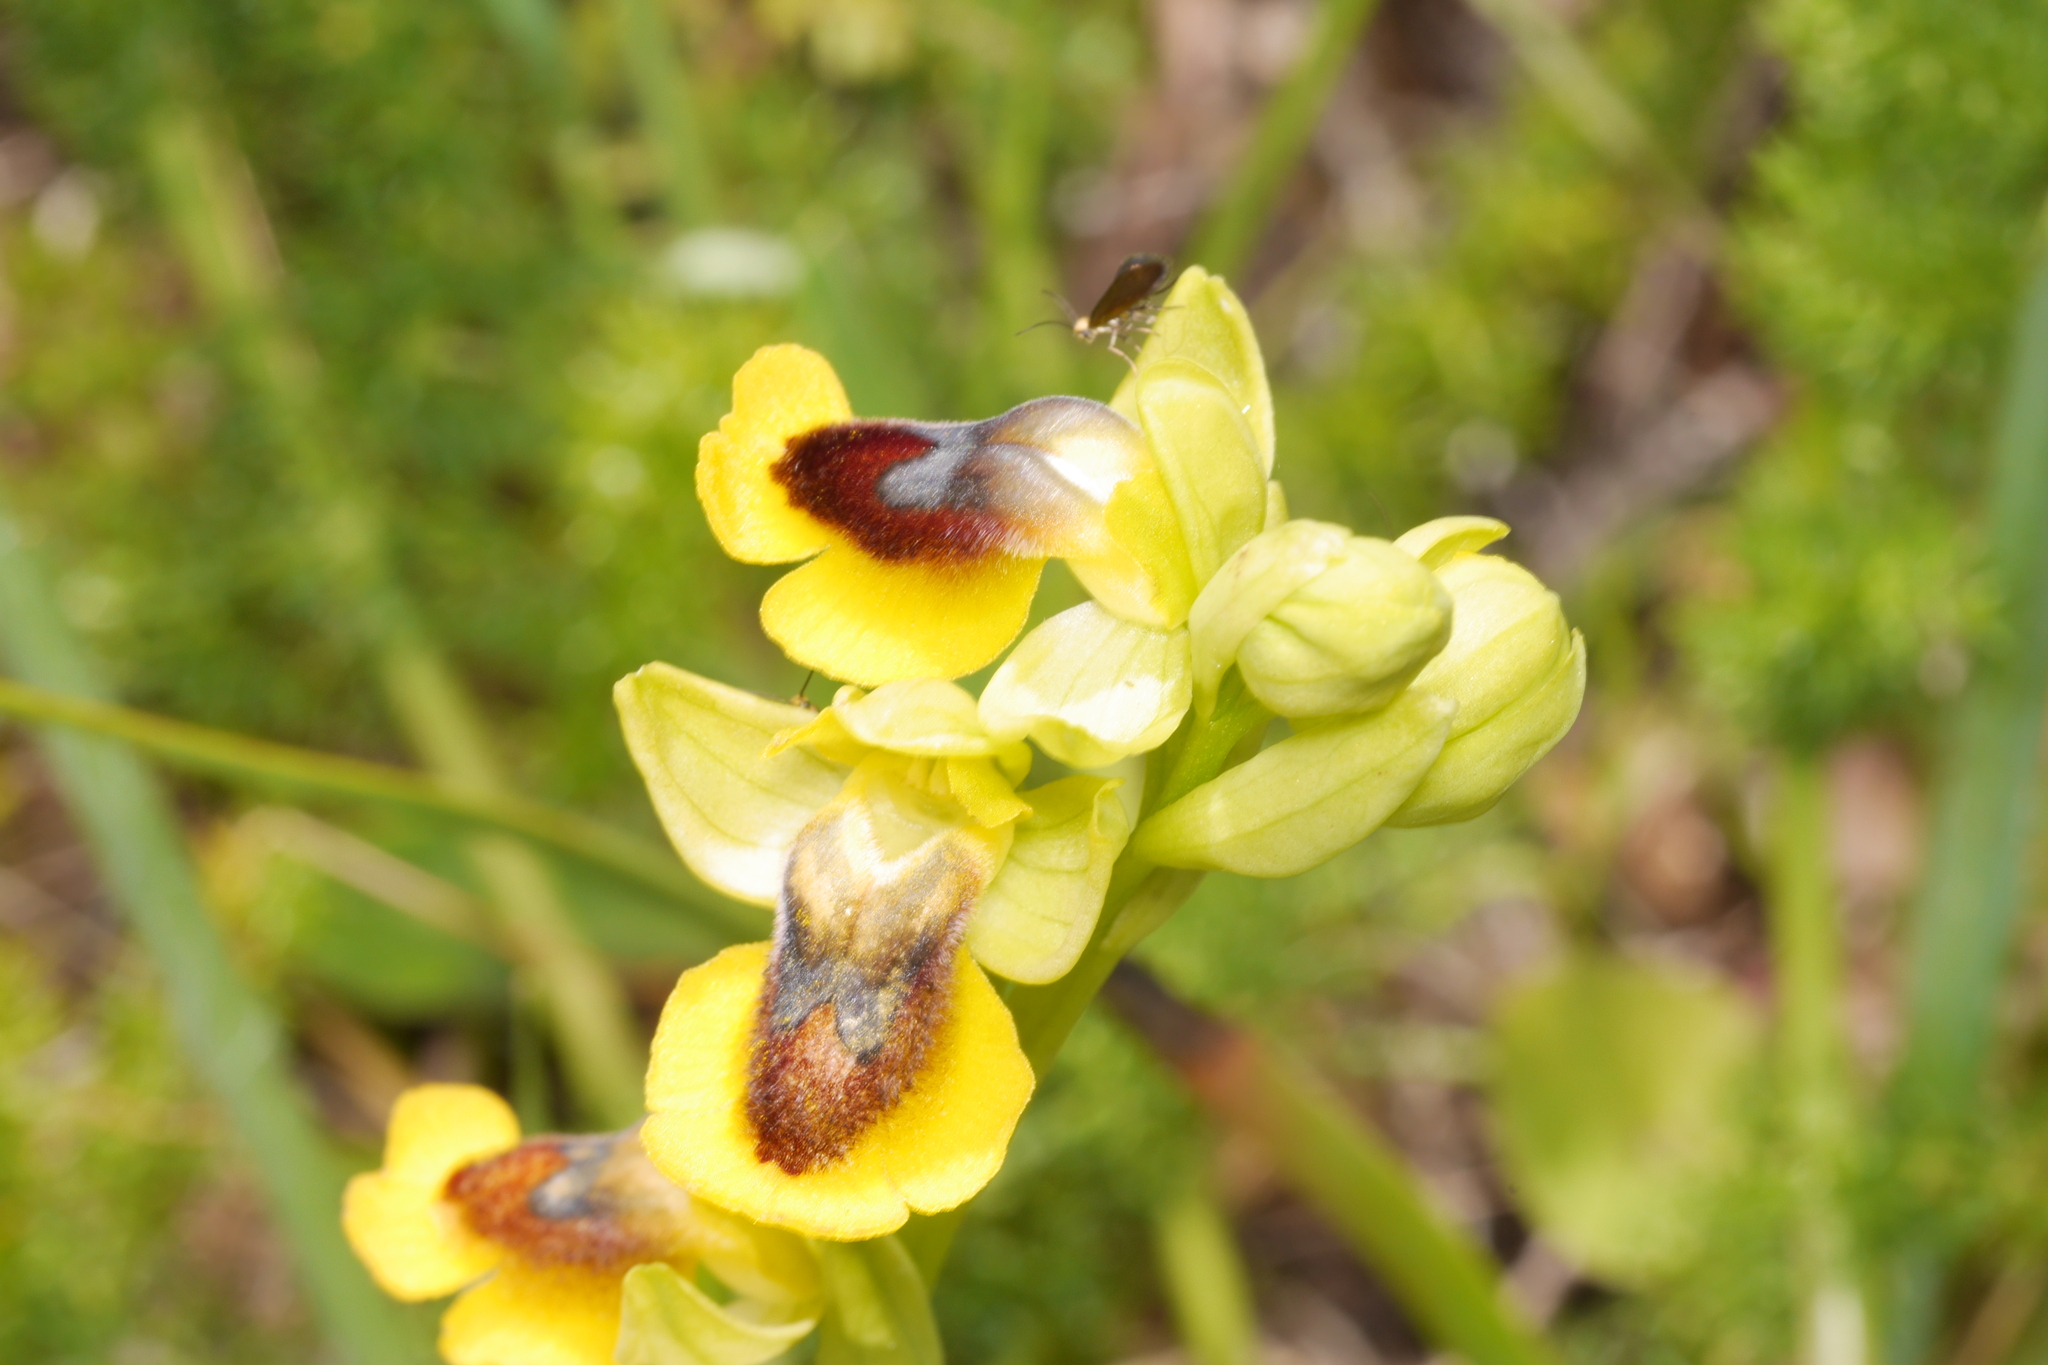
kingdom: Plantae
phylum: Tracheophyta
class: Liliopsida
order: Asparagales
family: Orchidaceae
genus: Ophrys
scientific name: Ophrys lutea
